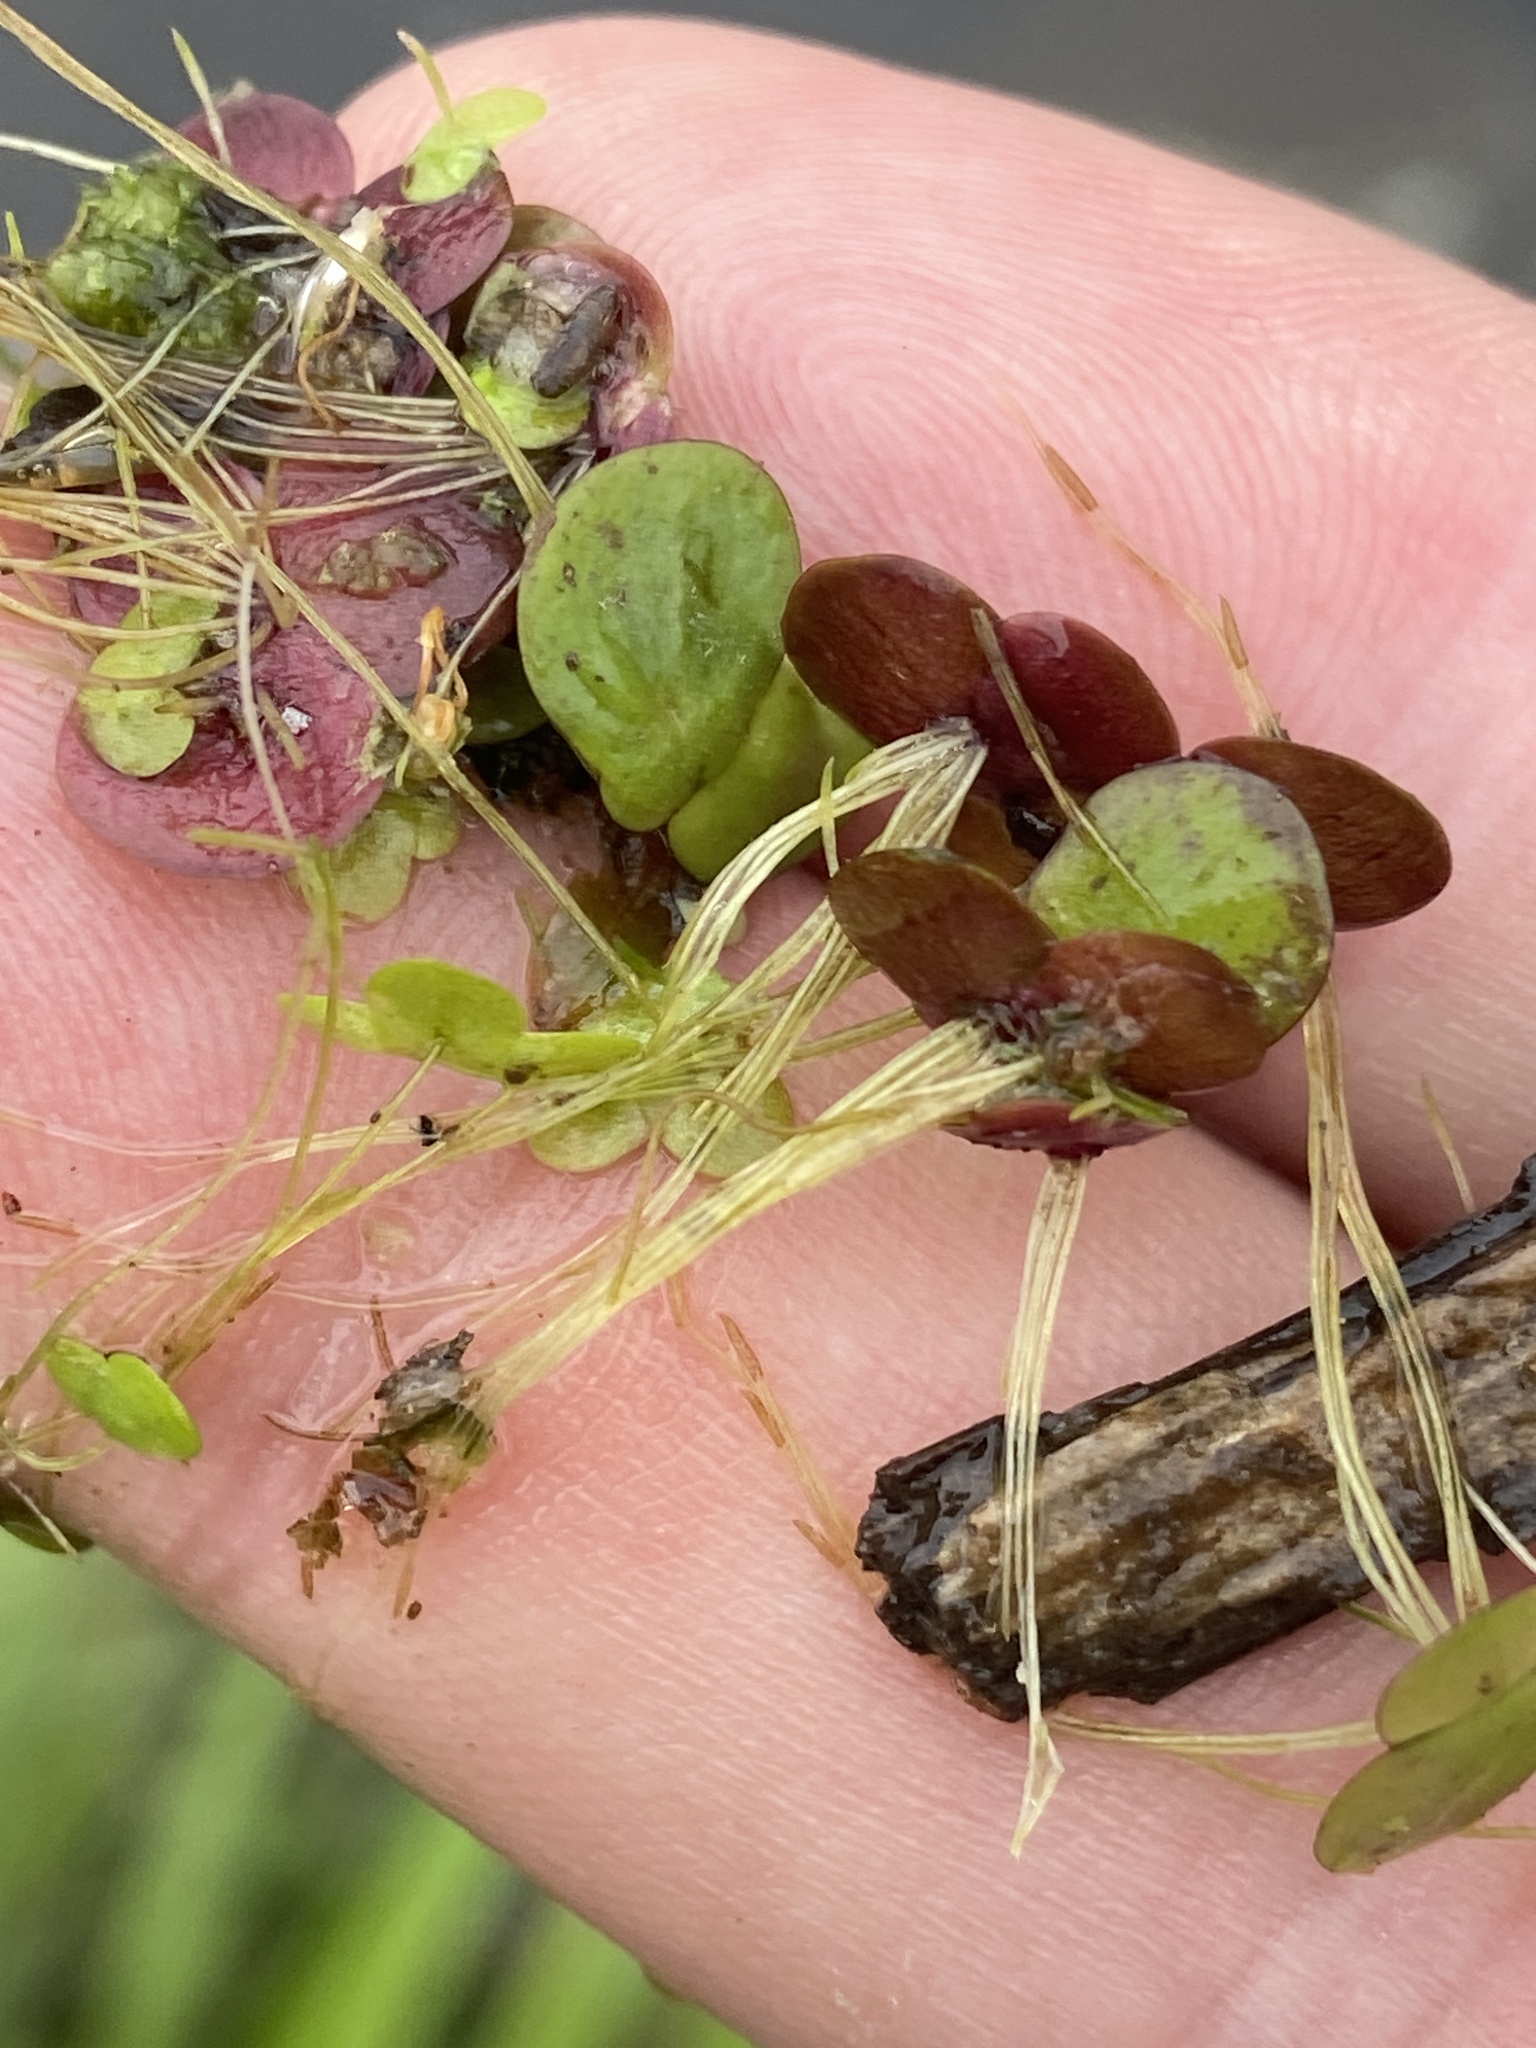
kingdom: Plantae
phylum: Tracheophyta
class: Liliopsida
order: Alismatales
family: Araceae
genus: Spirodela
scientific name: Spirodela polyrhiza
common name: Great duckweed
